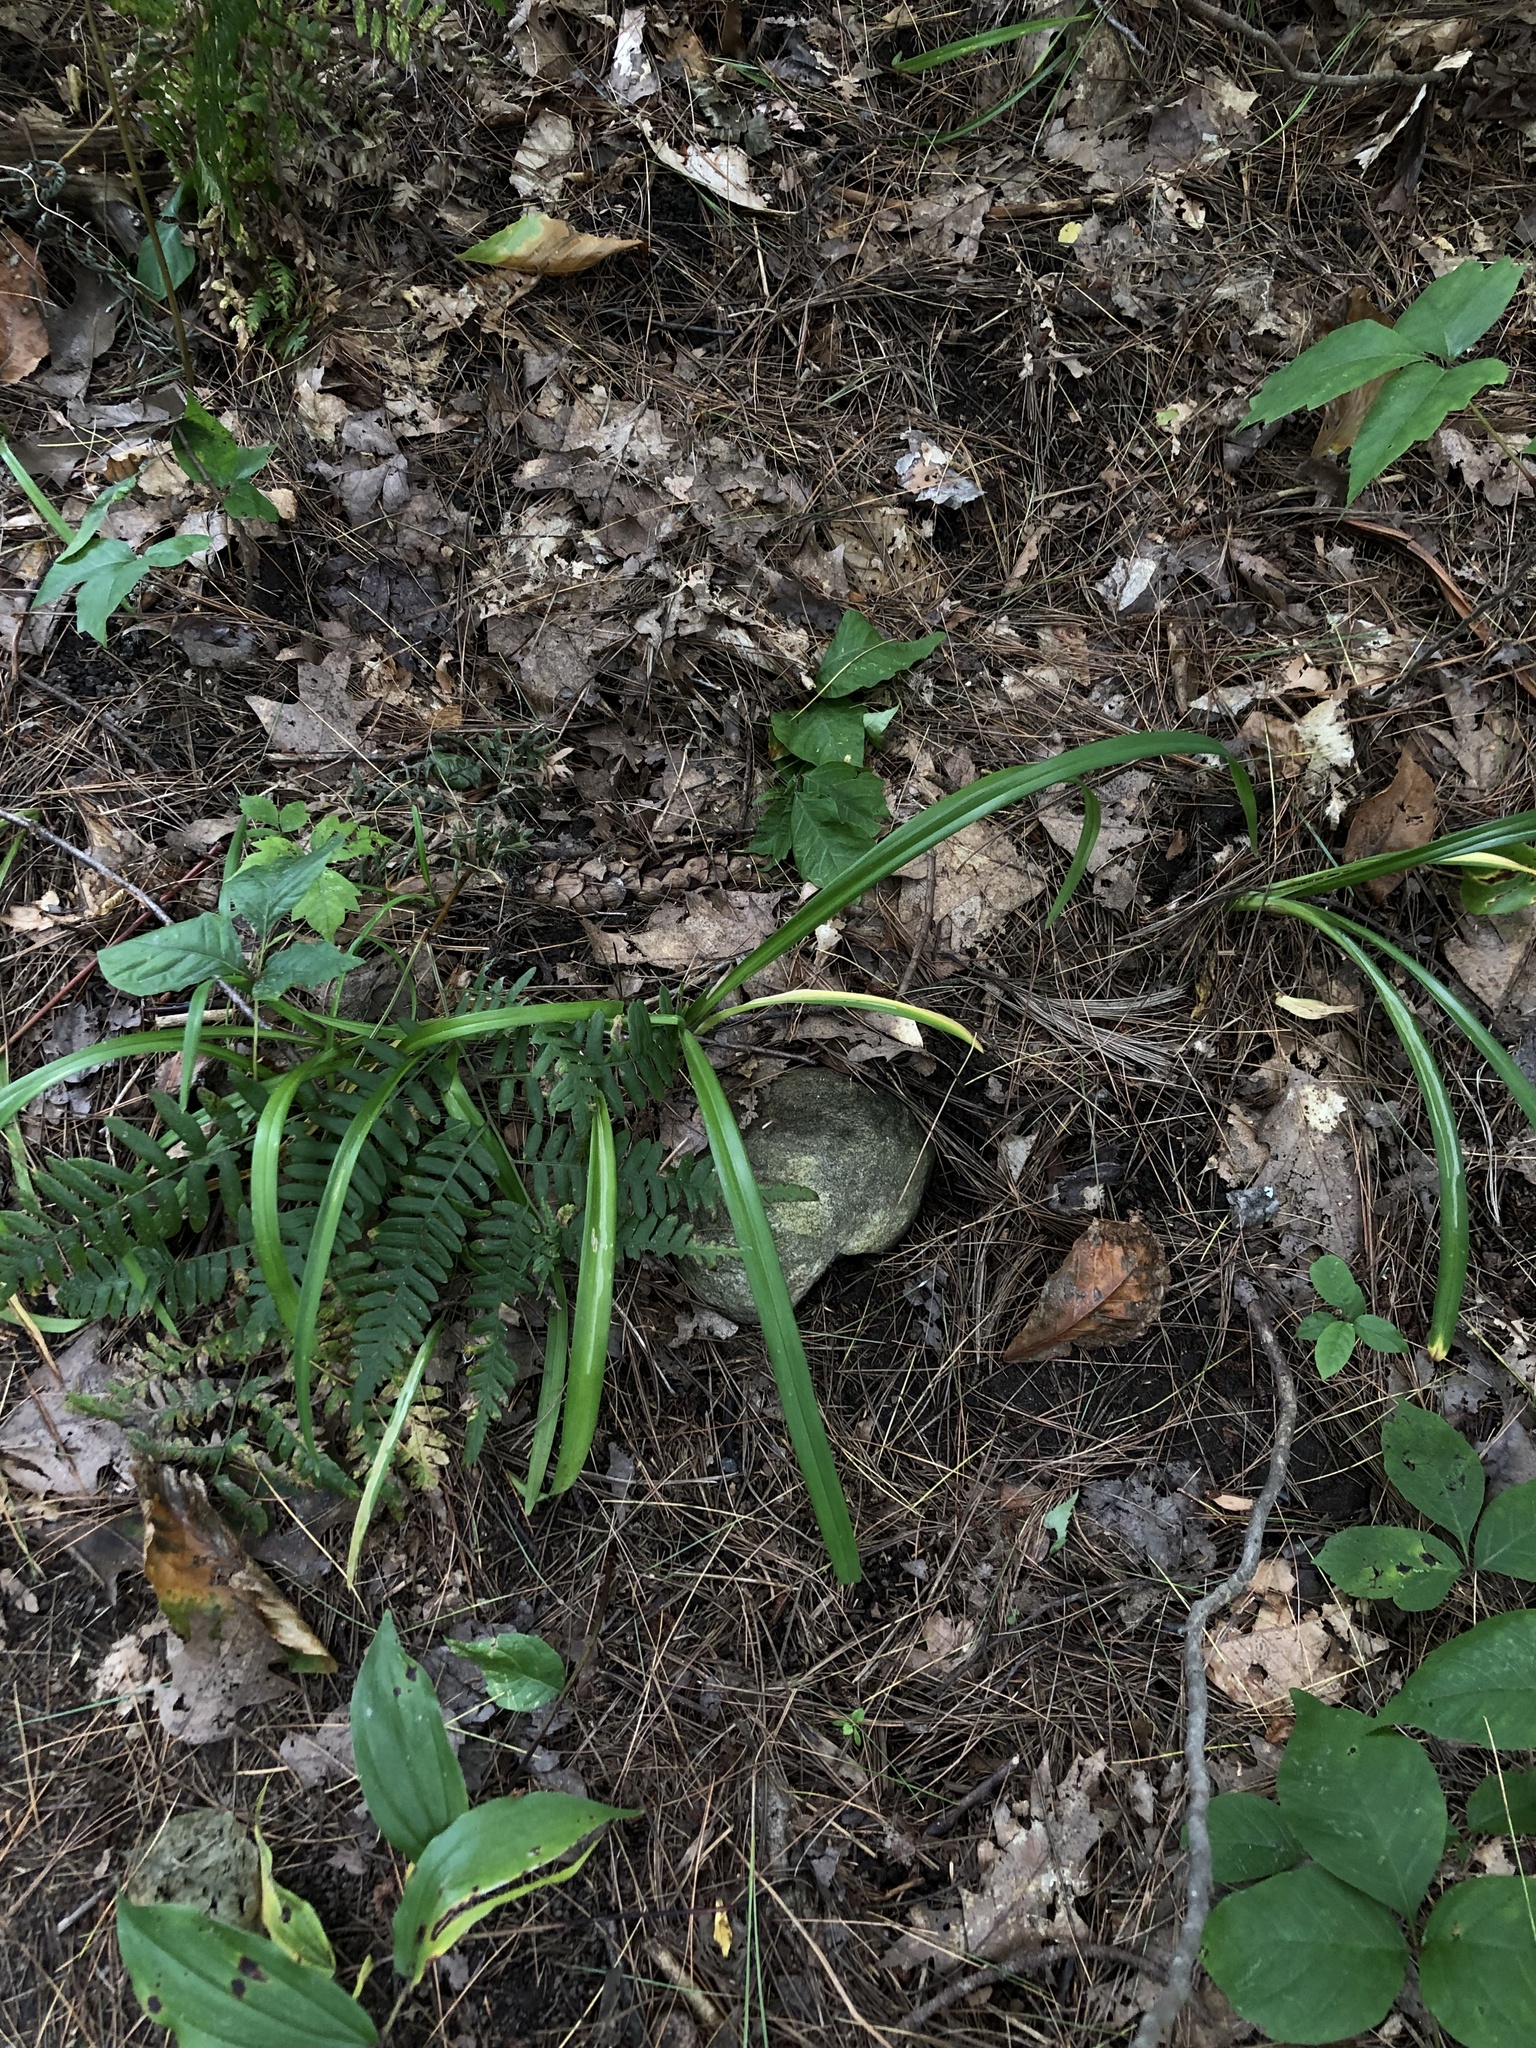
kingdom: Plantae
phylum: Tracheophyta
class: Liliopsida
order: Poales
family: Cyperaceae
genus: Carex
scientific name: Carex
